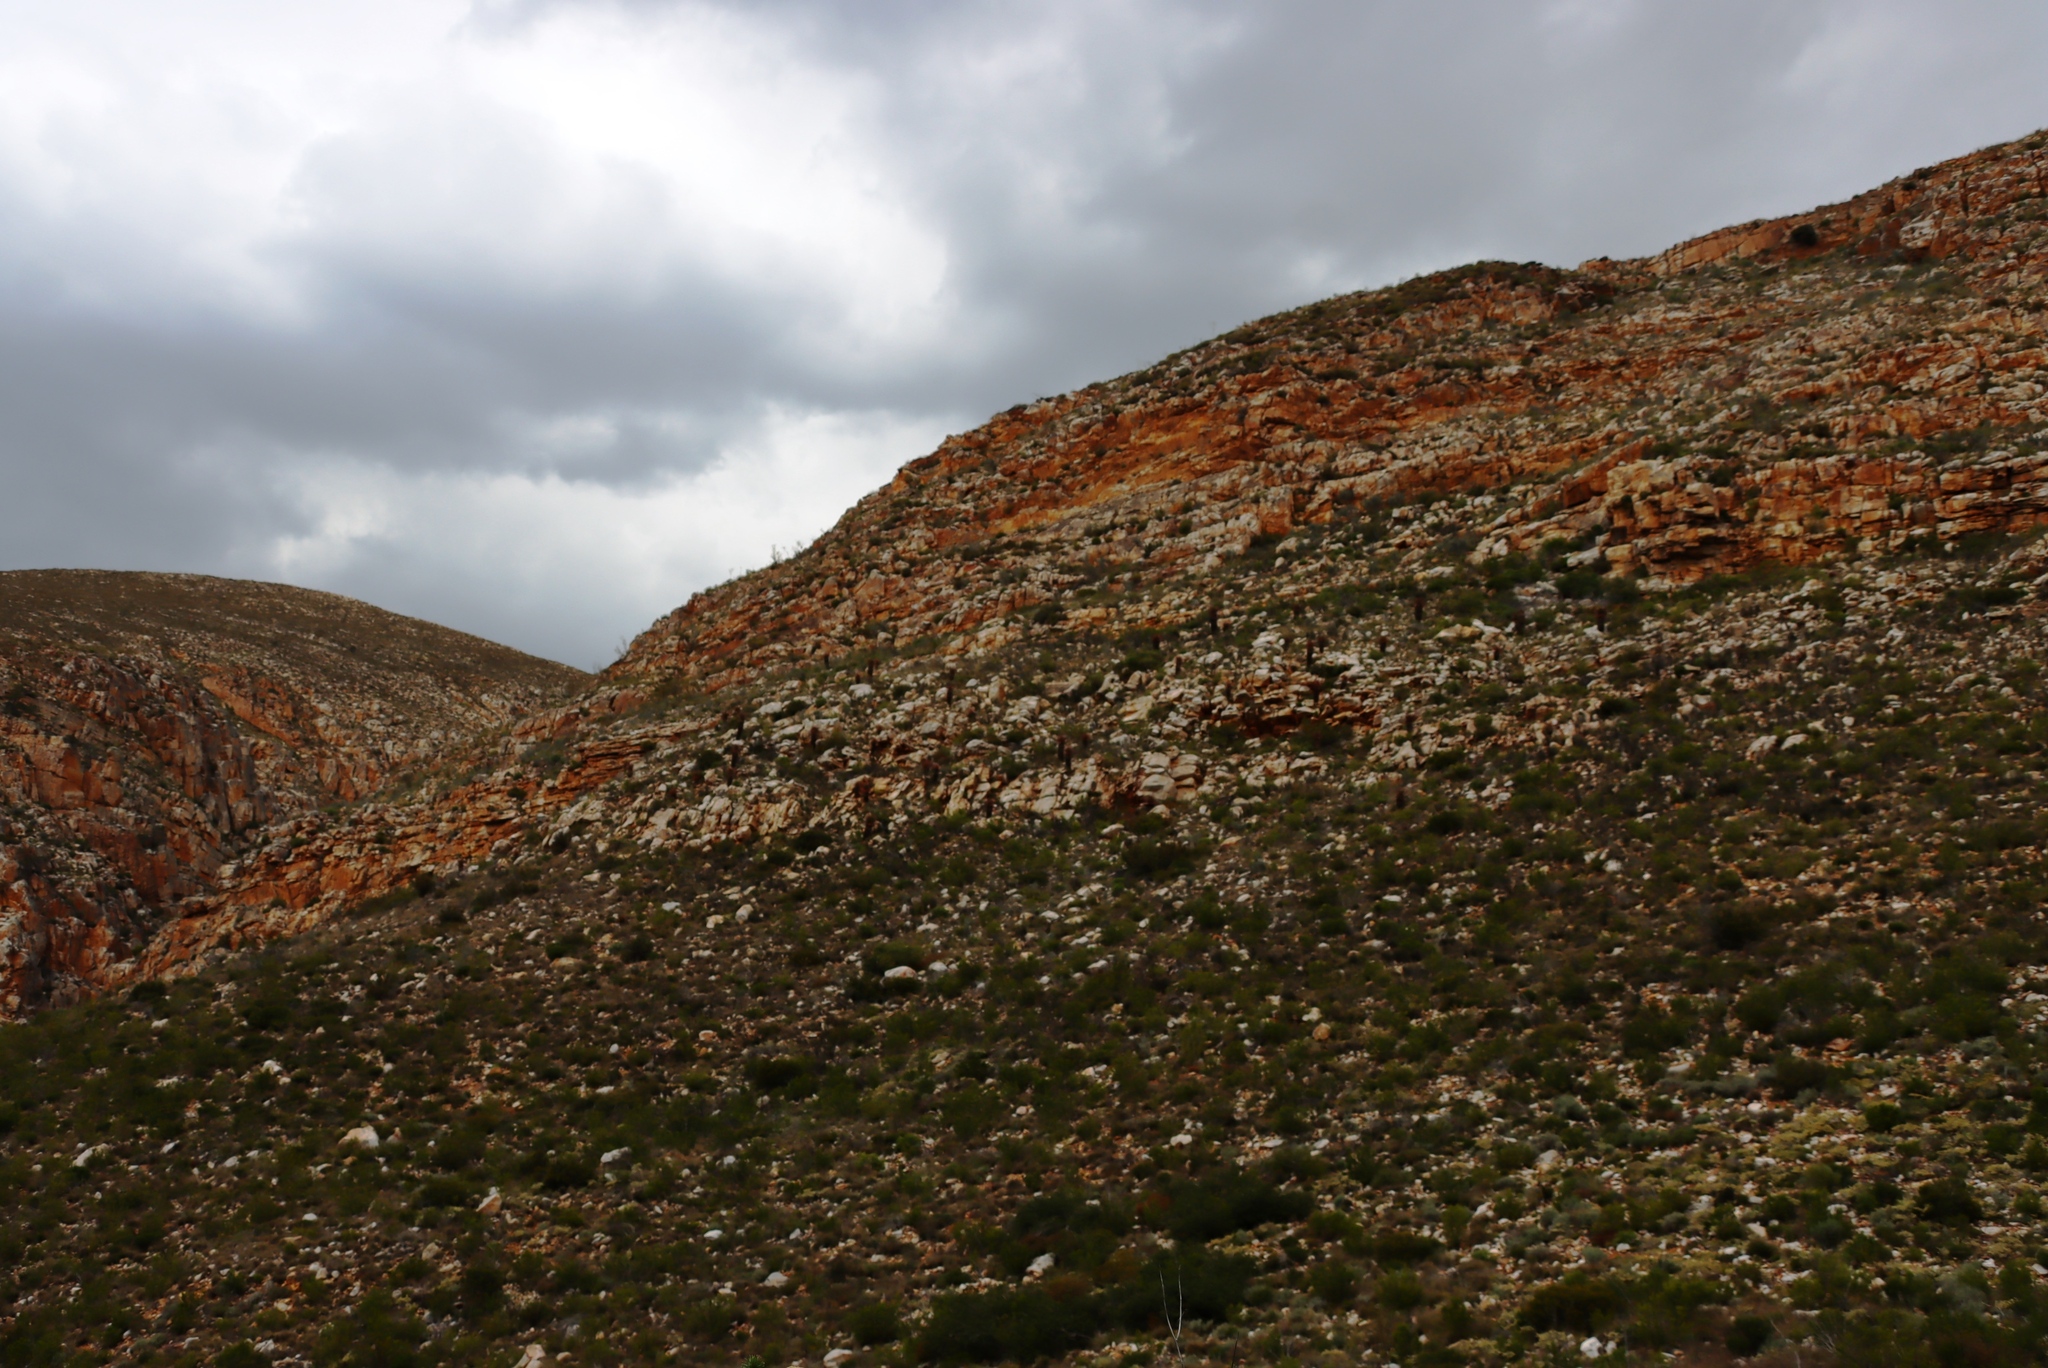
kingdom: Plantae
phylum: Tracheophyta
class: Liliopsida
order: Asparagales
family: Asphodelaceae
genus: Aloe
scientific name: Aloe ferox
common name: Bitter aloe
